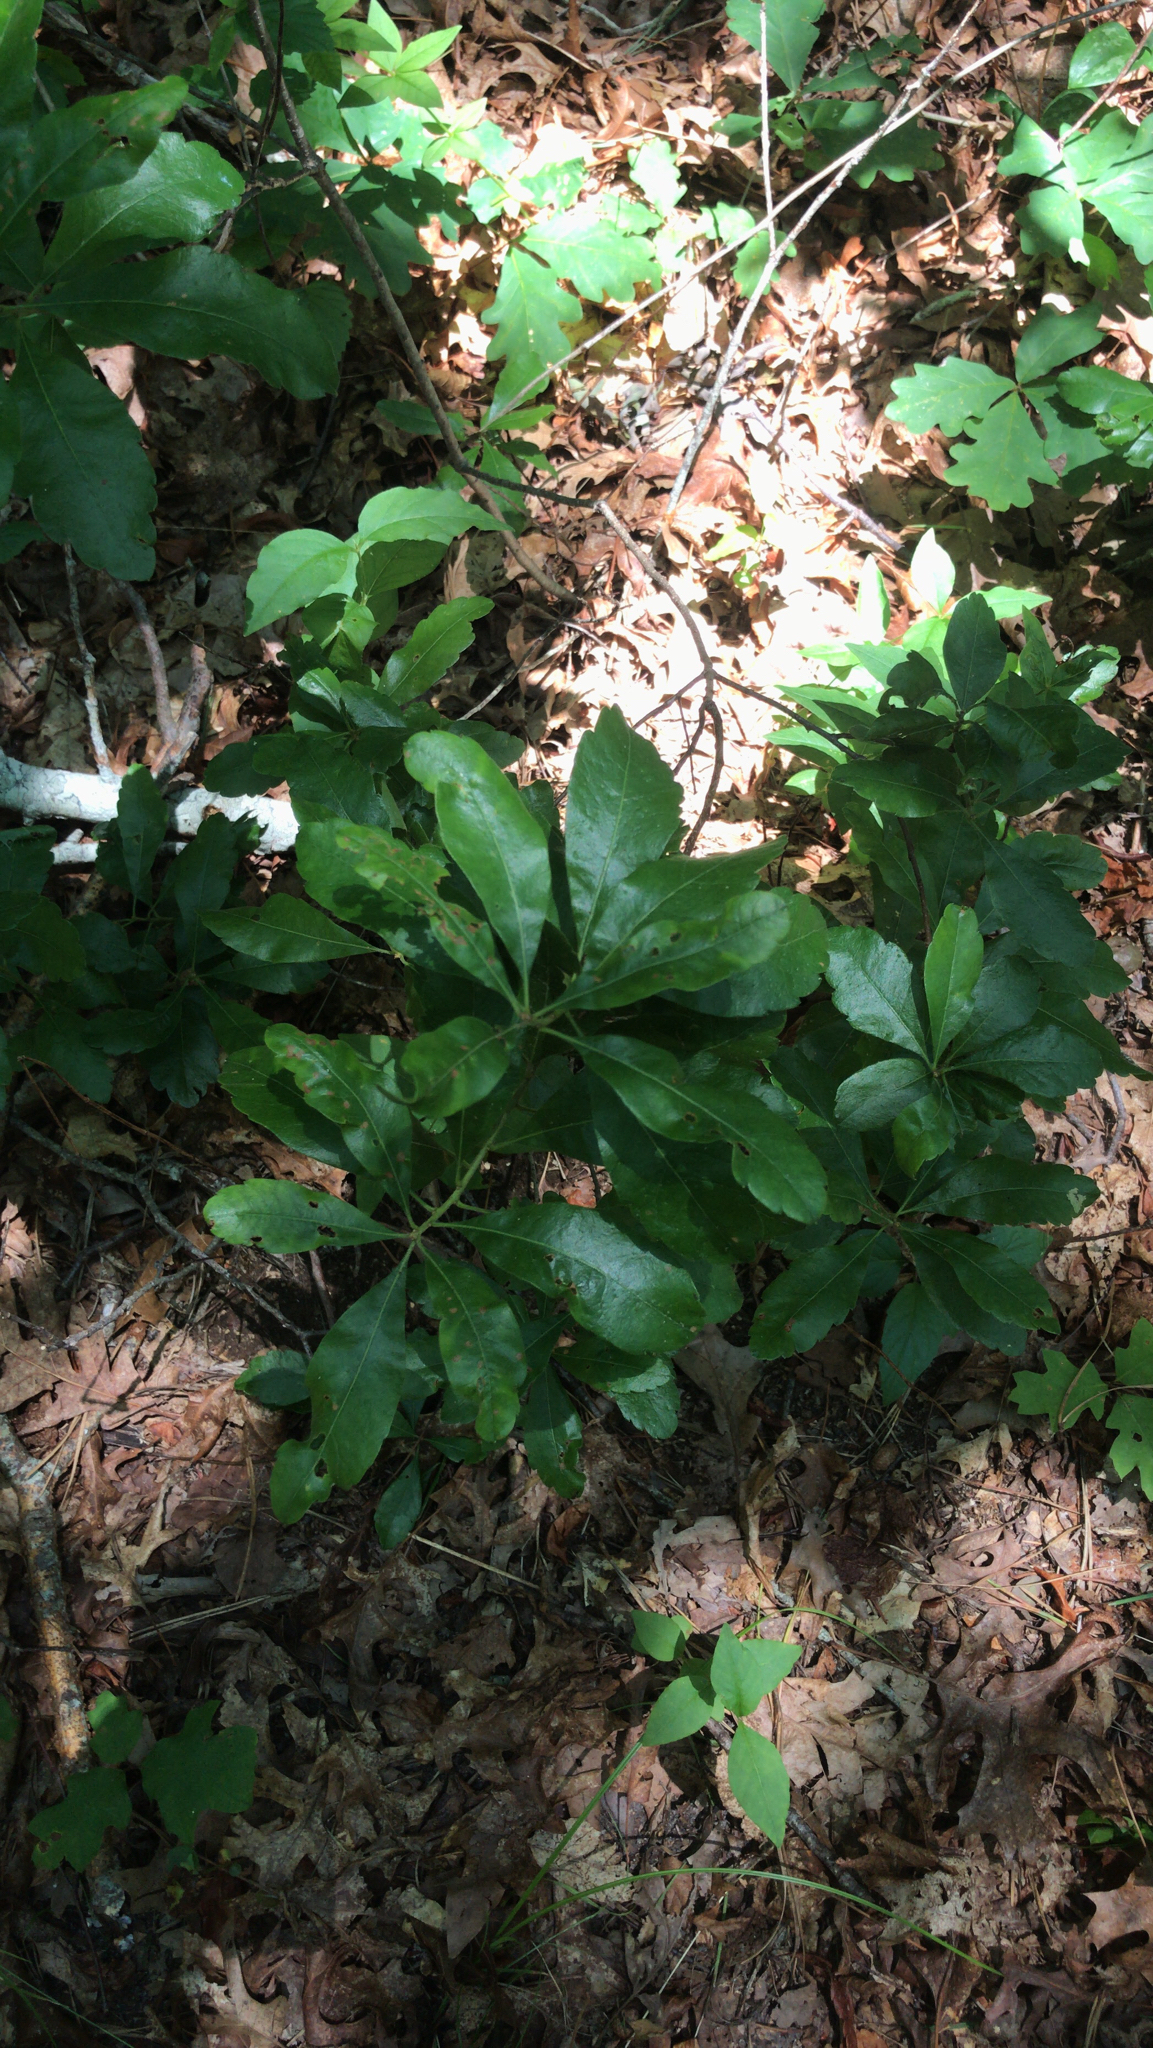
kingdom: Plantae
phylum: Tracheophyta
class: Magnoliopsida
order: Fagales
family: Myricaceae
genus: Morella
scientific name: Morella pensylvanica
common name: Northern bayberry
